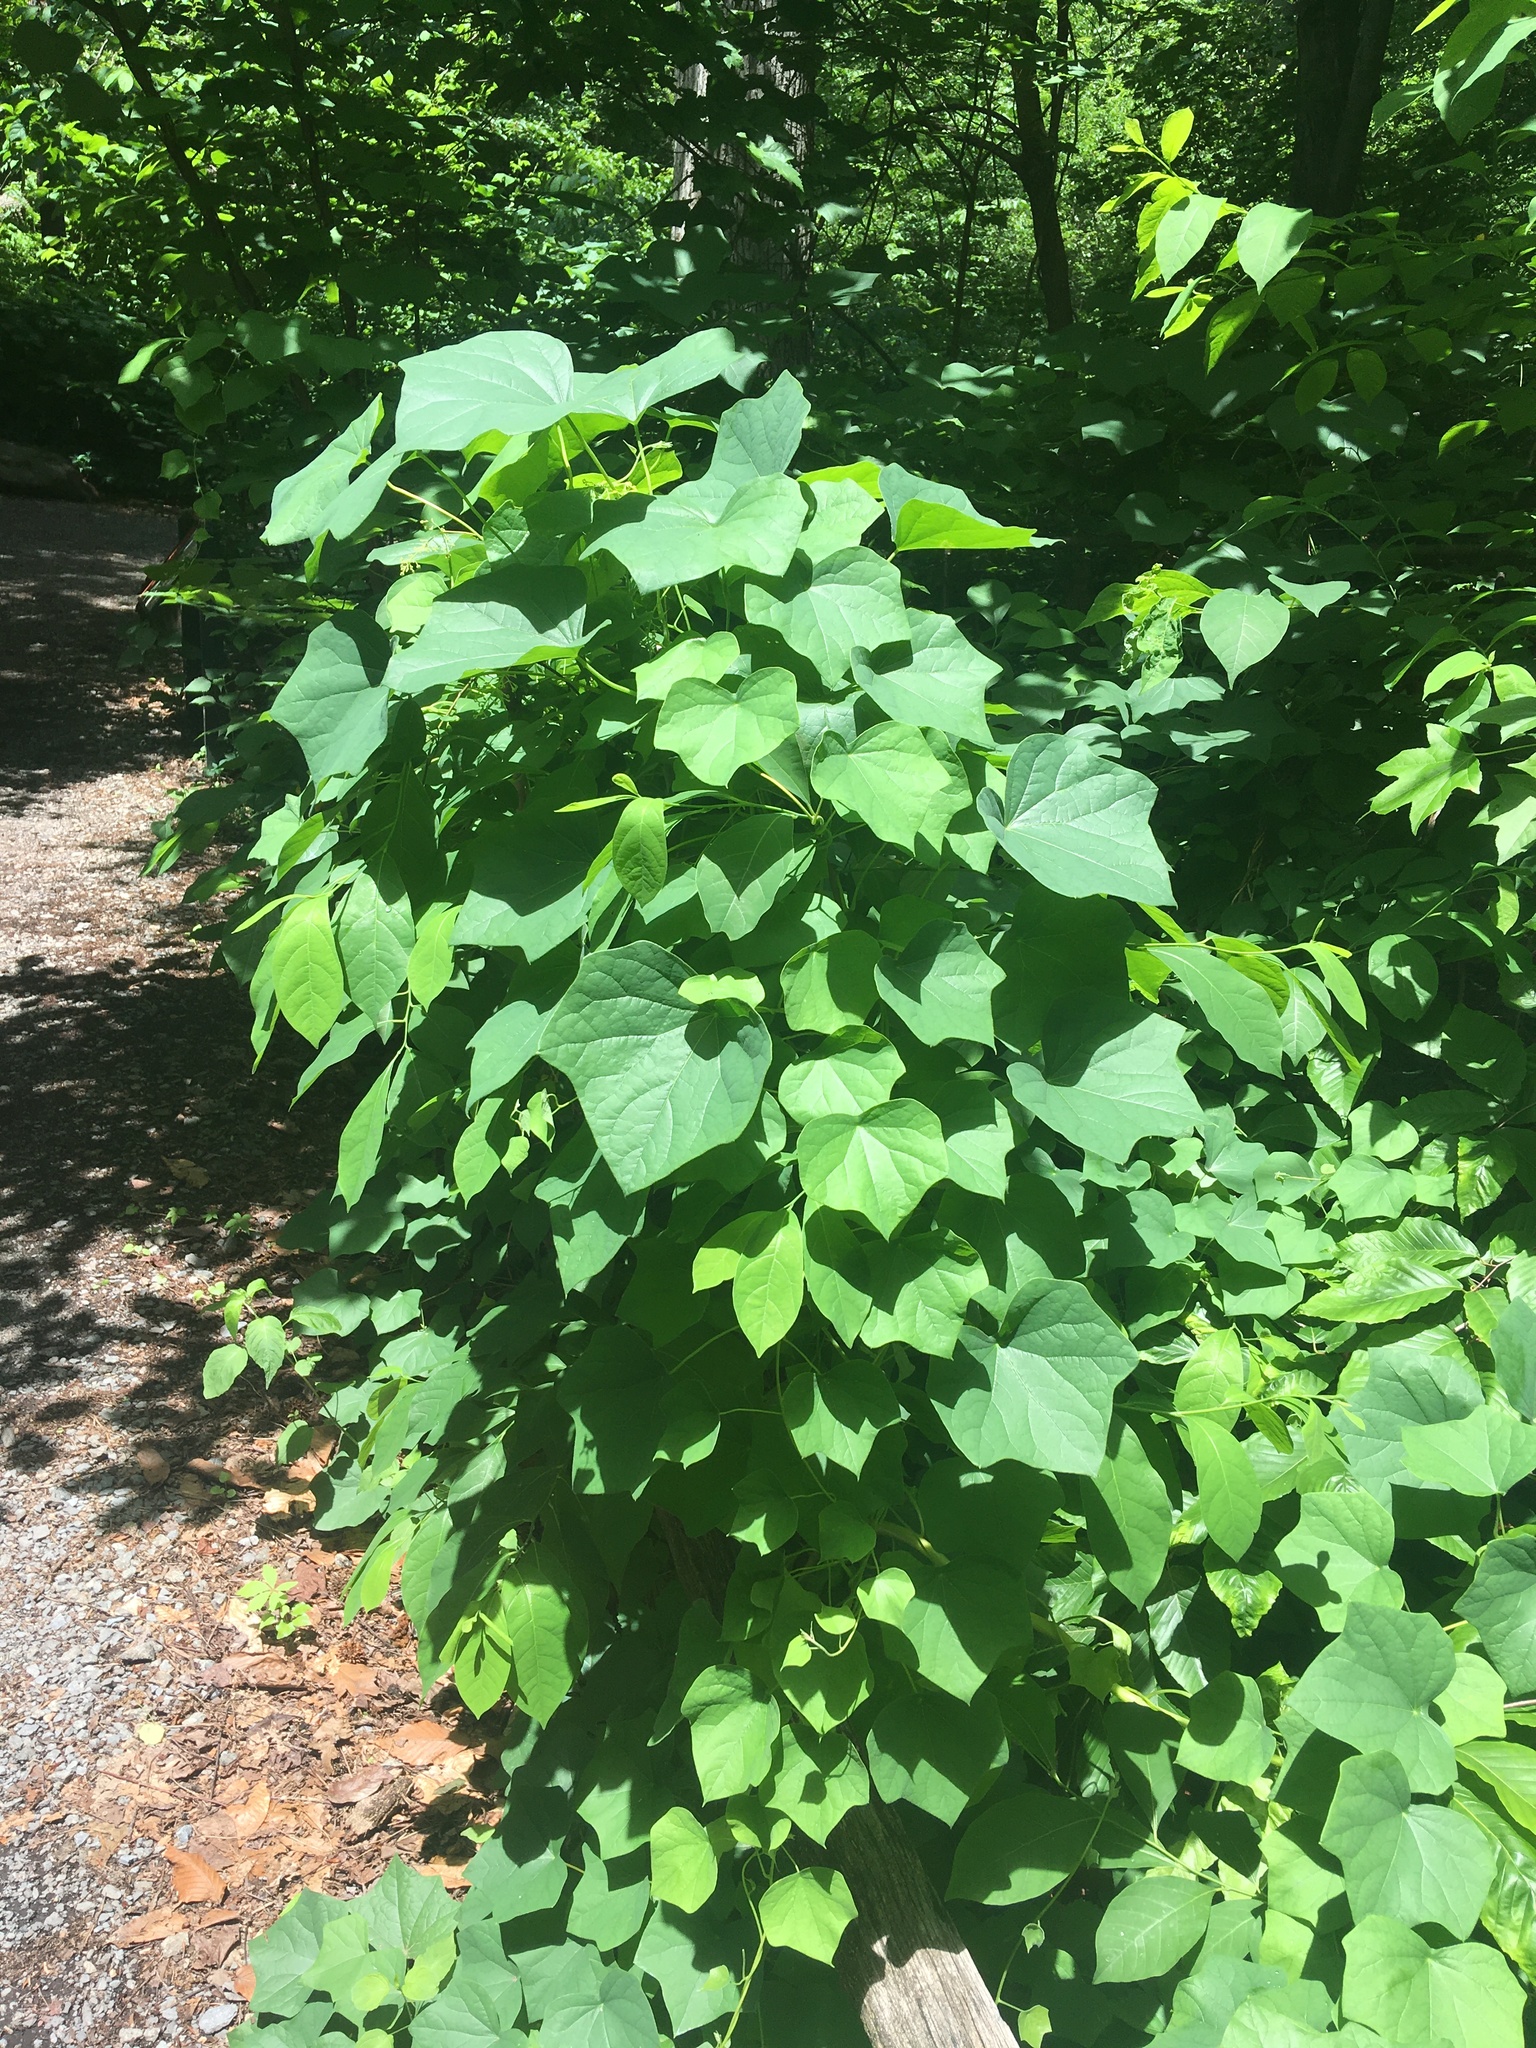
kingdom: Plantae
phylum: Tracheophyta
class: Magnoliopsida
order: Ranunculales
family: Menispermaceae
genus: Menispermum
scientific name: Menispermum canadense
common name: Moonseed
